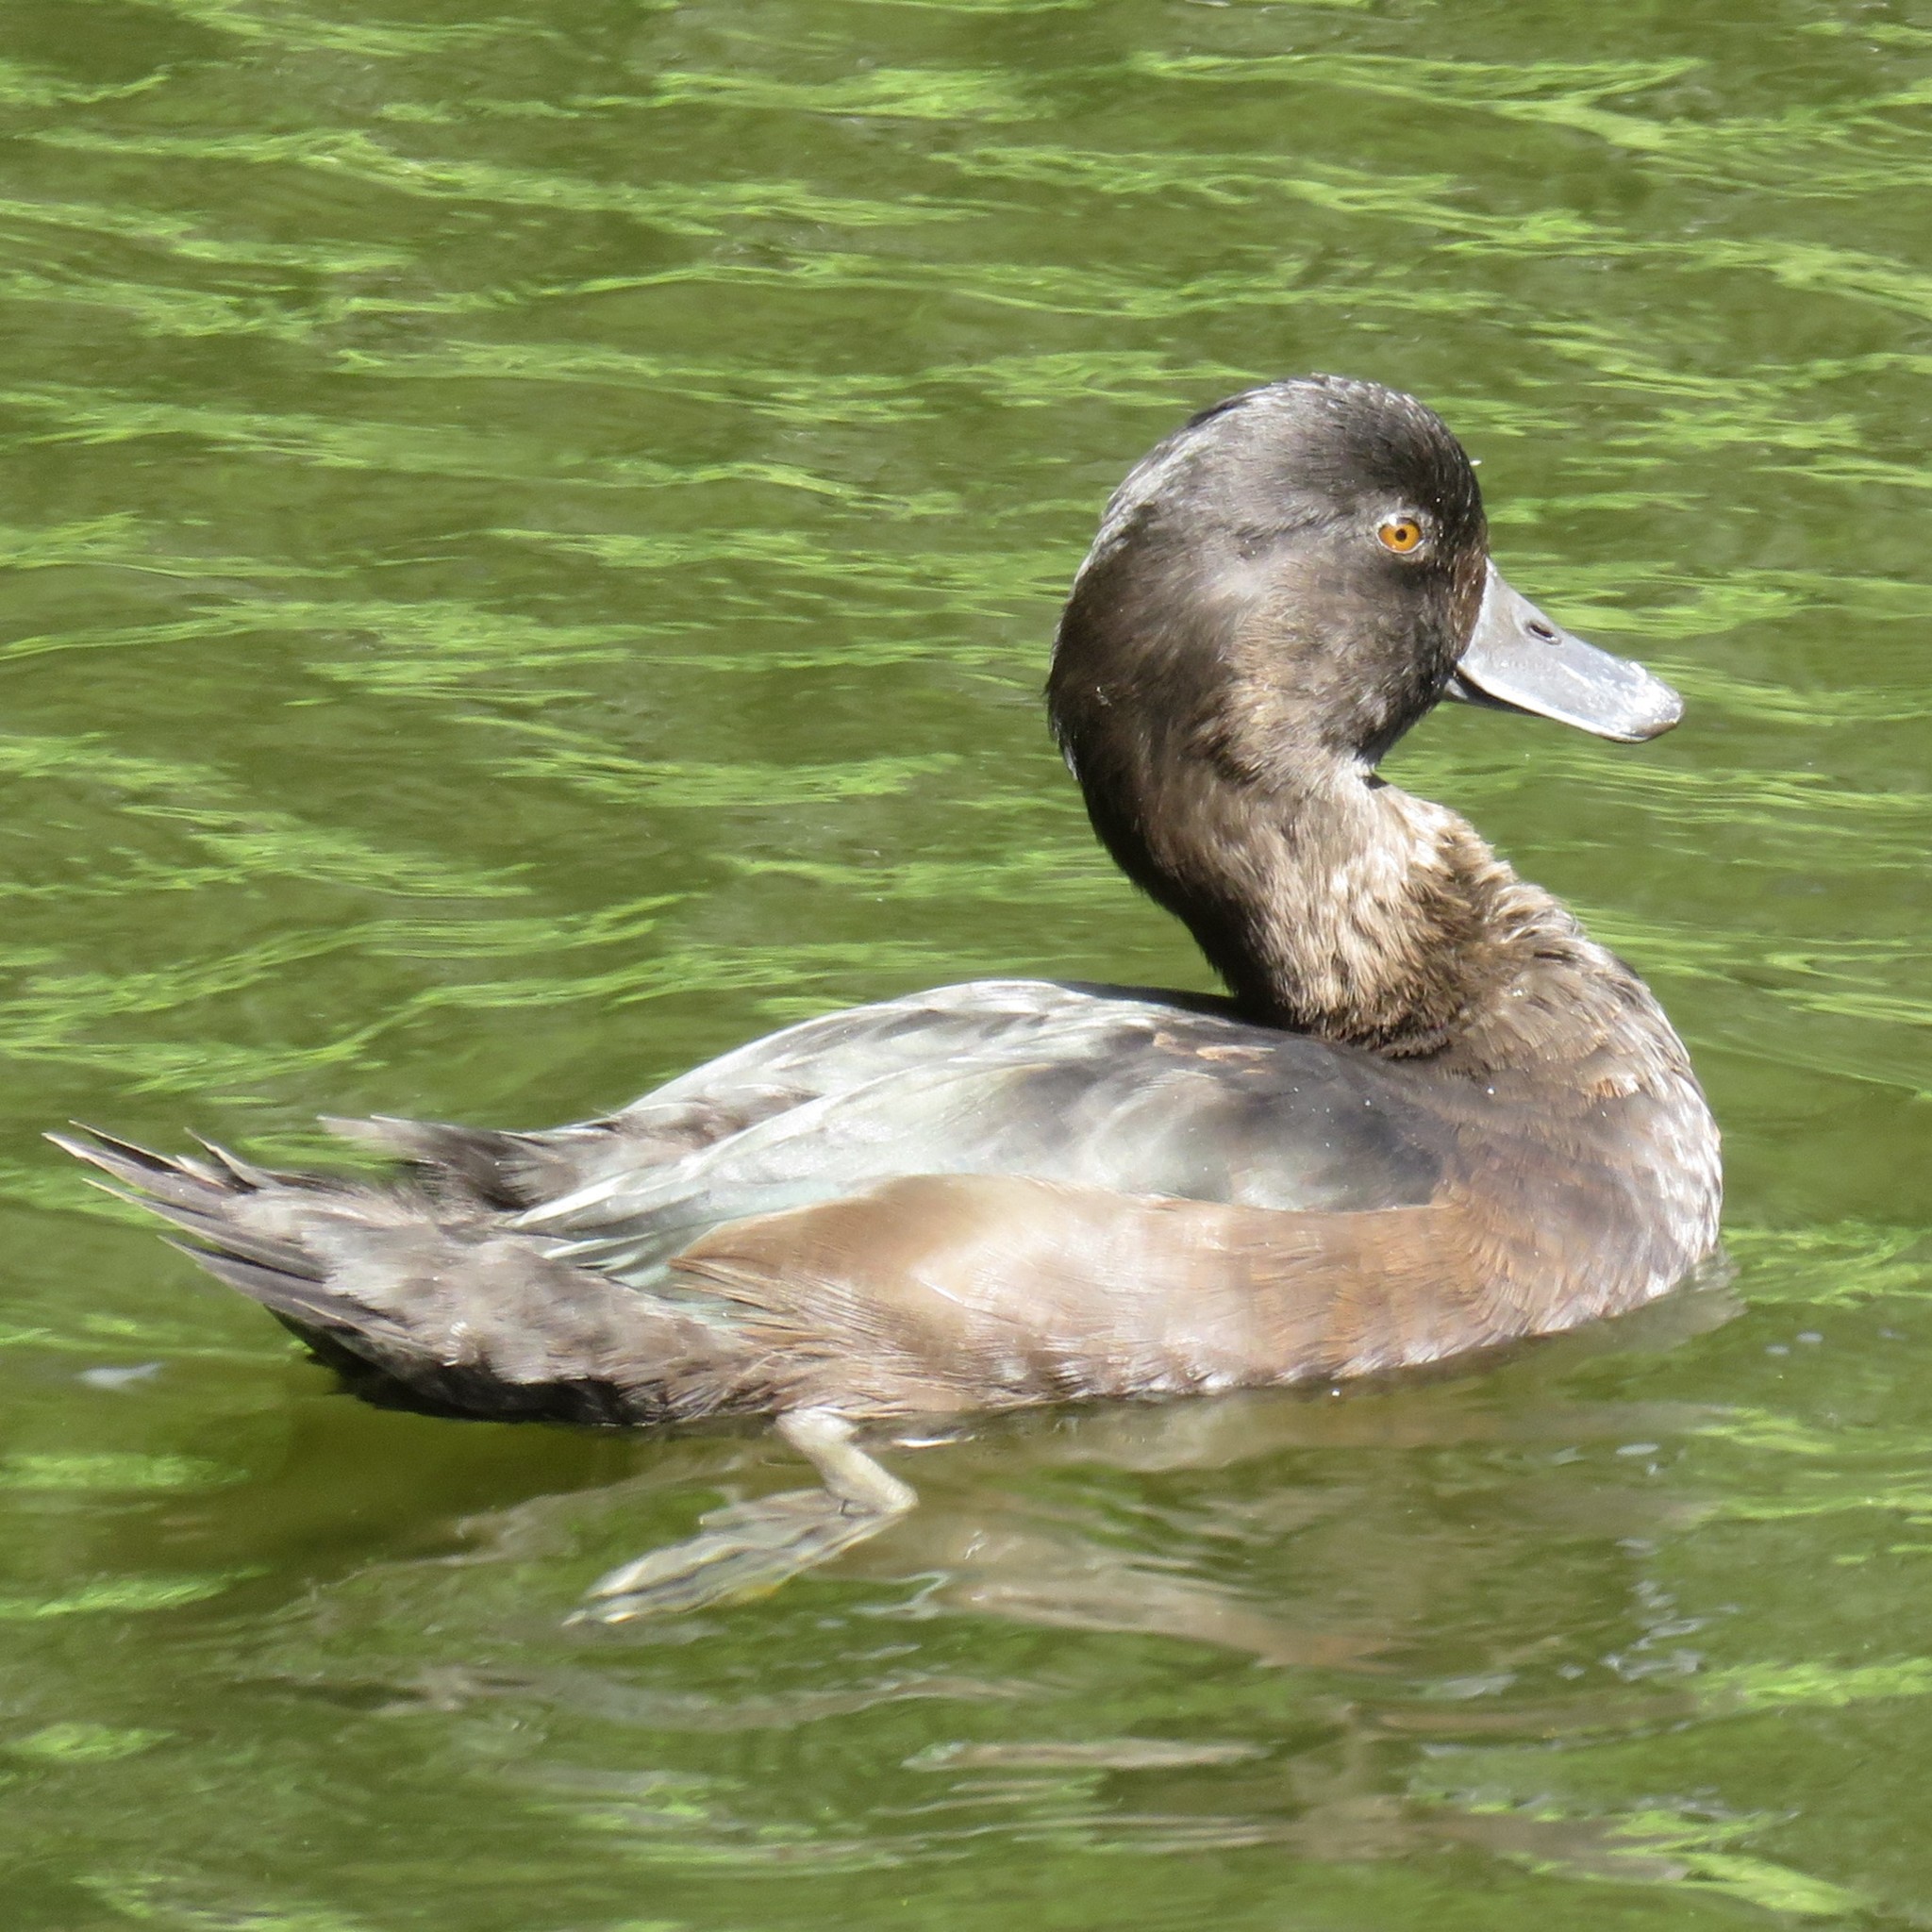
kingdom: Animalia
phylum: Chordata
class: Aves
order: Anseriformes
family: Anatidae
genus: Aythya
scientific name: Aythya novaeseelandiae
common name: New zealand scaup
